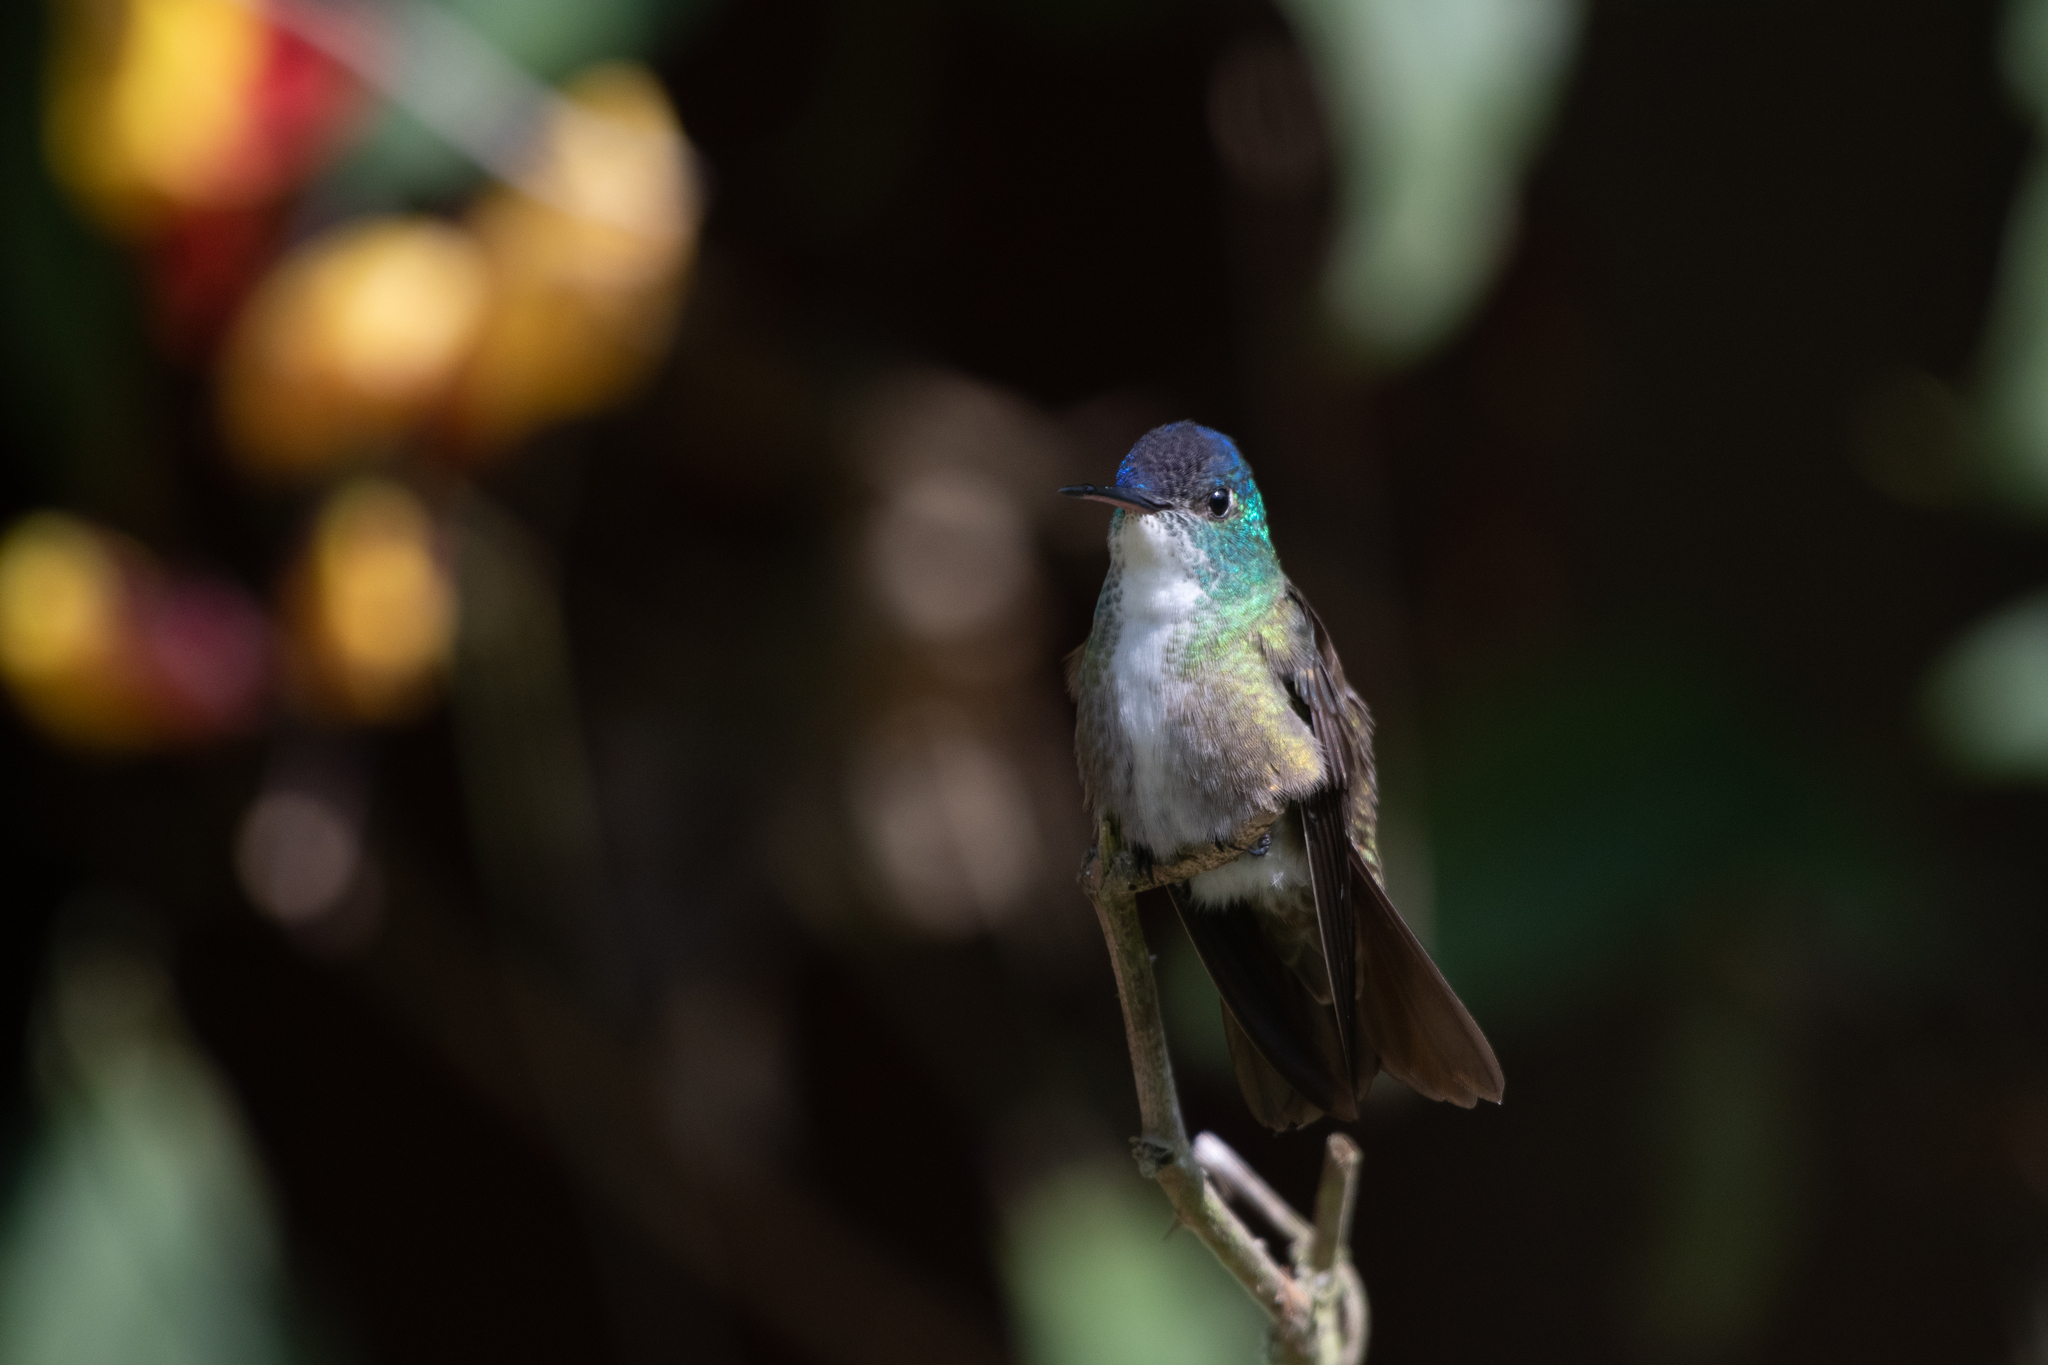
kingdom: Animalia
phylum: Chordata
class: Aves
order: Apodiformes
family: Trochilidae
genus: Saucerottia
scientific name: Saucerottia cyanocephala
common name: Azure-crowned hummingbird
